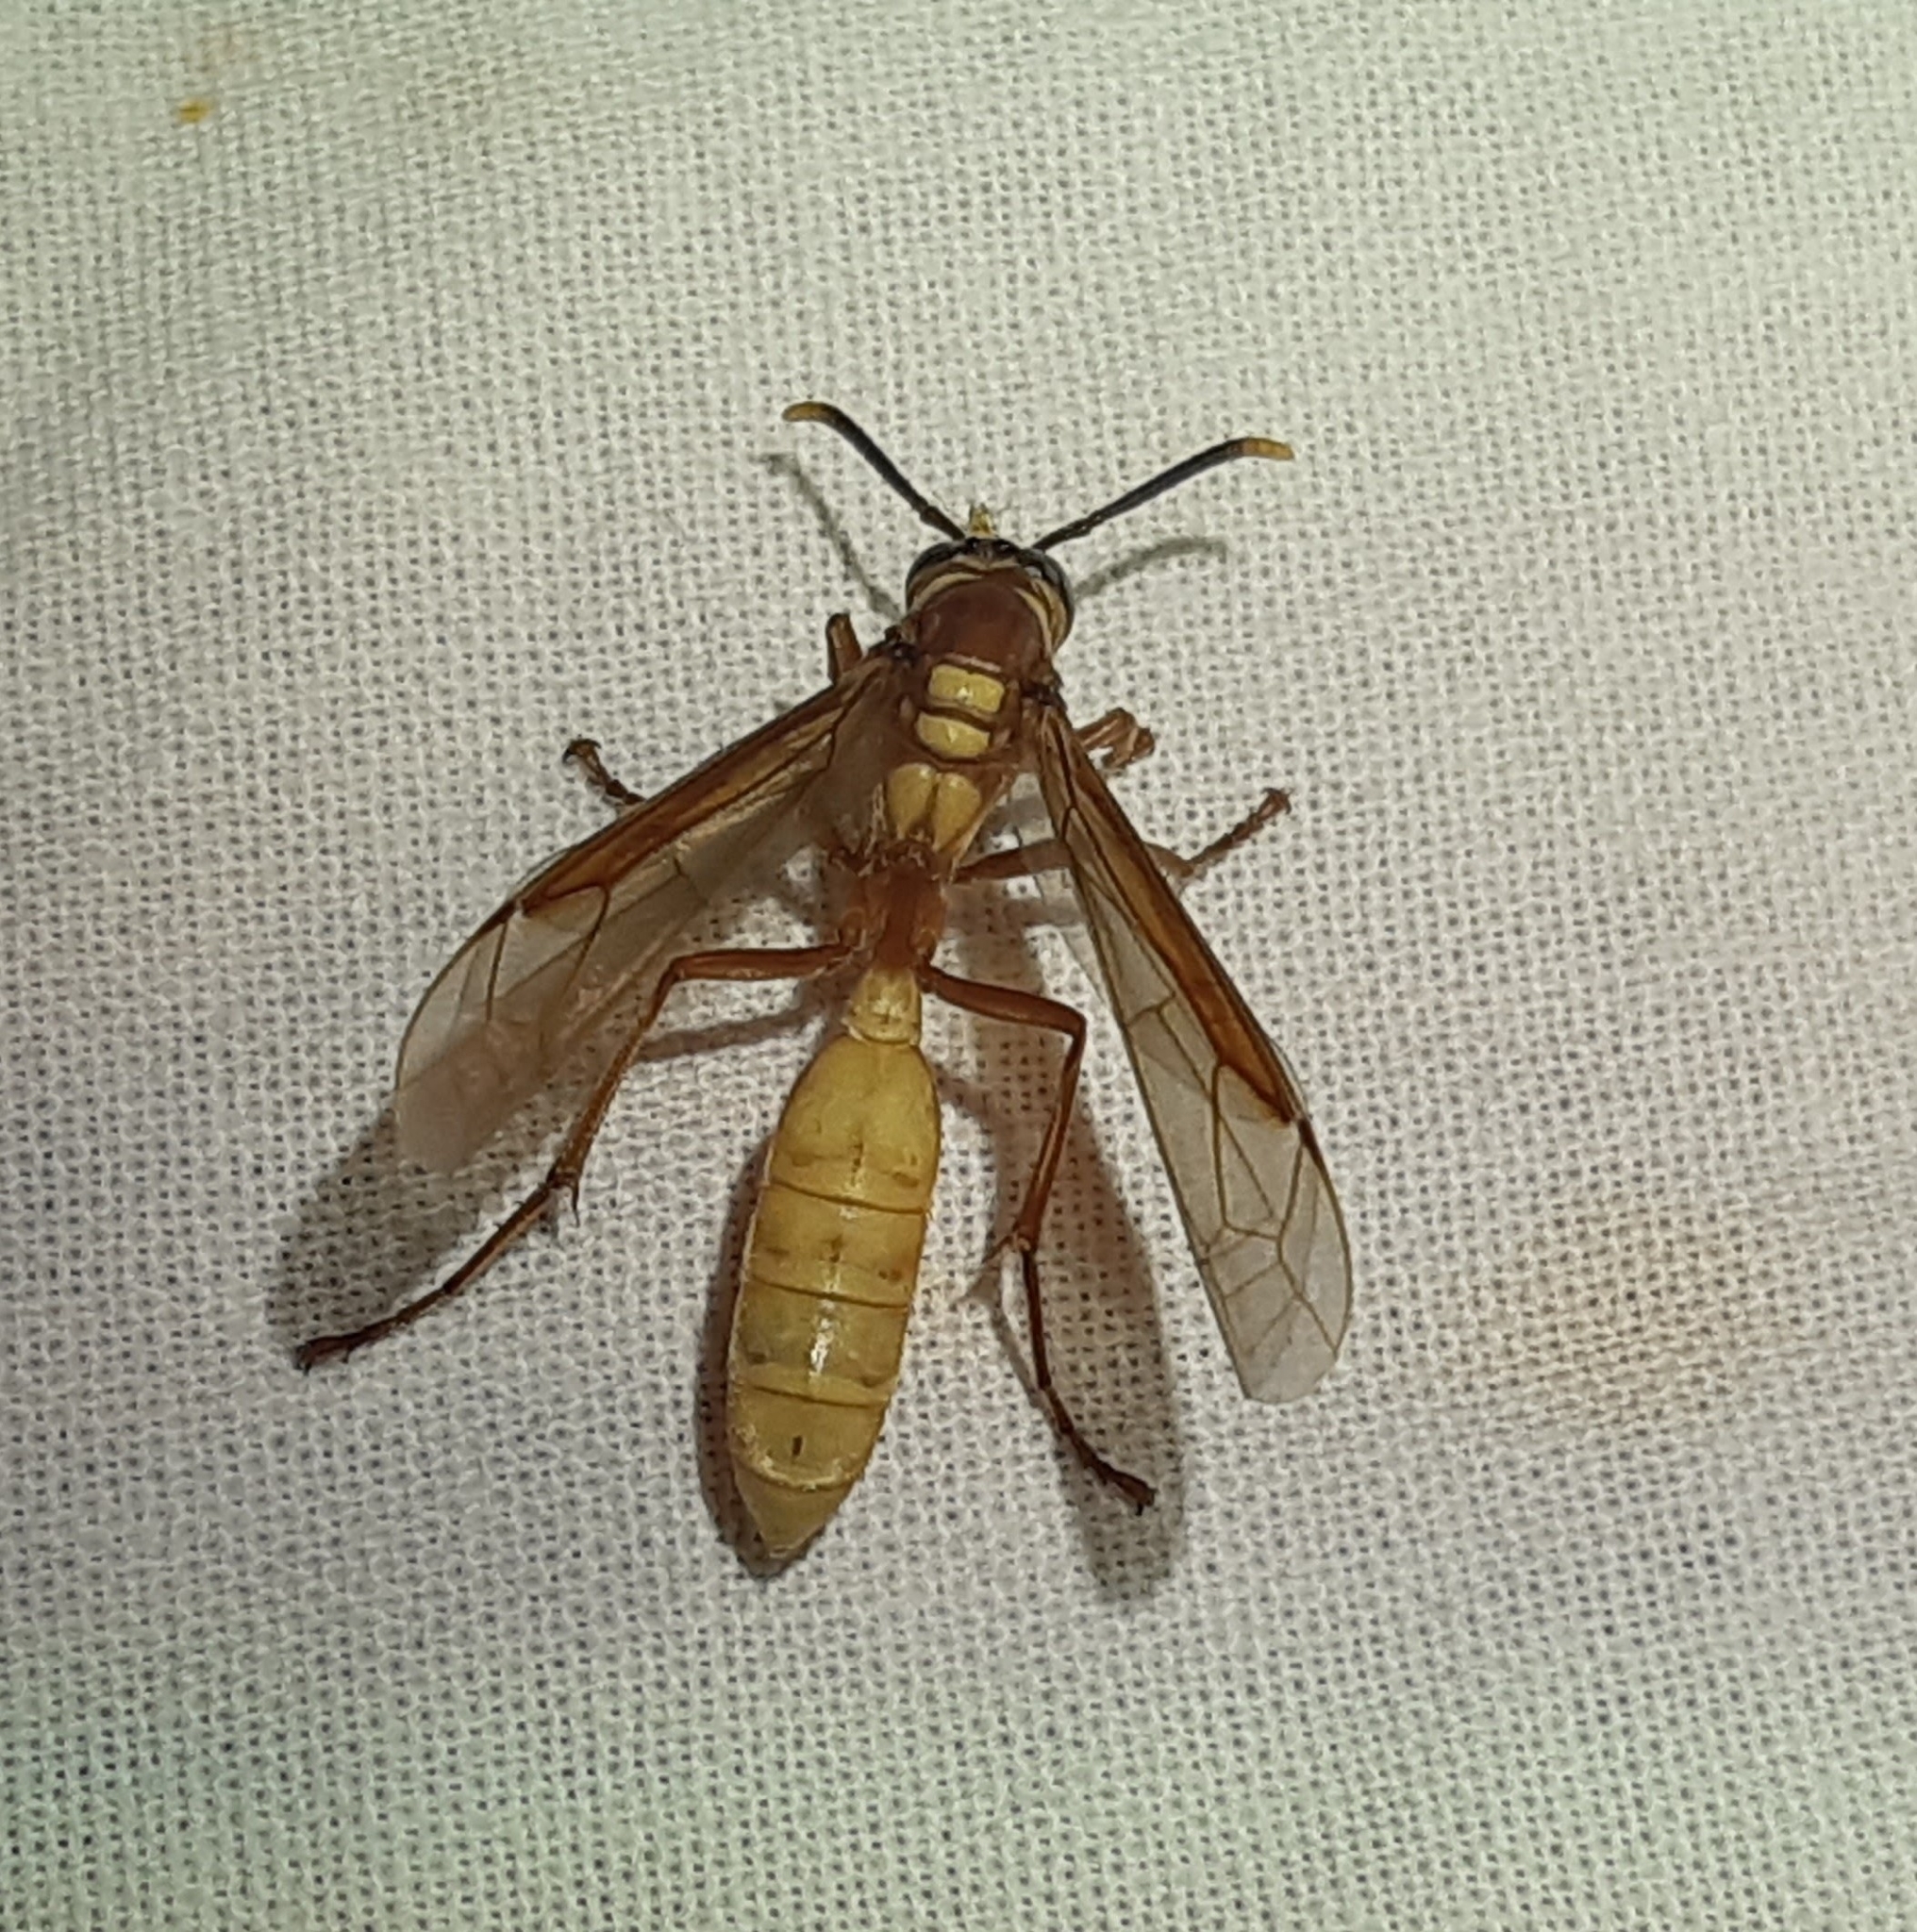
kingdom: Animalia
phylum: Arthropoda
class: Insecta
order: Hymenoptera
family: Vespidae
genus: Apoica
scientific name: Apoica gelida
